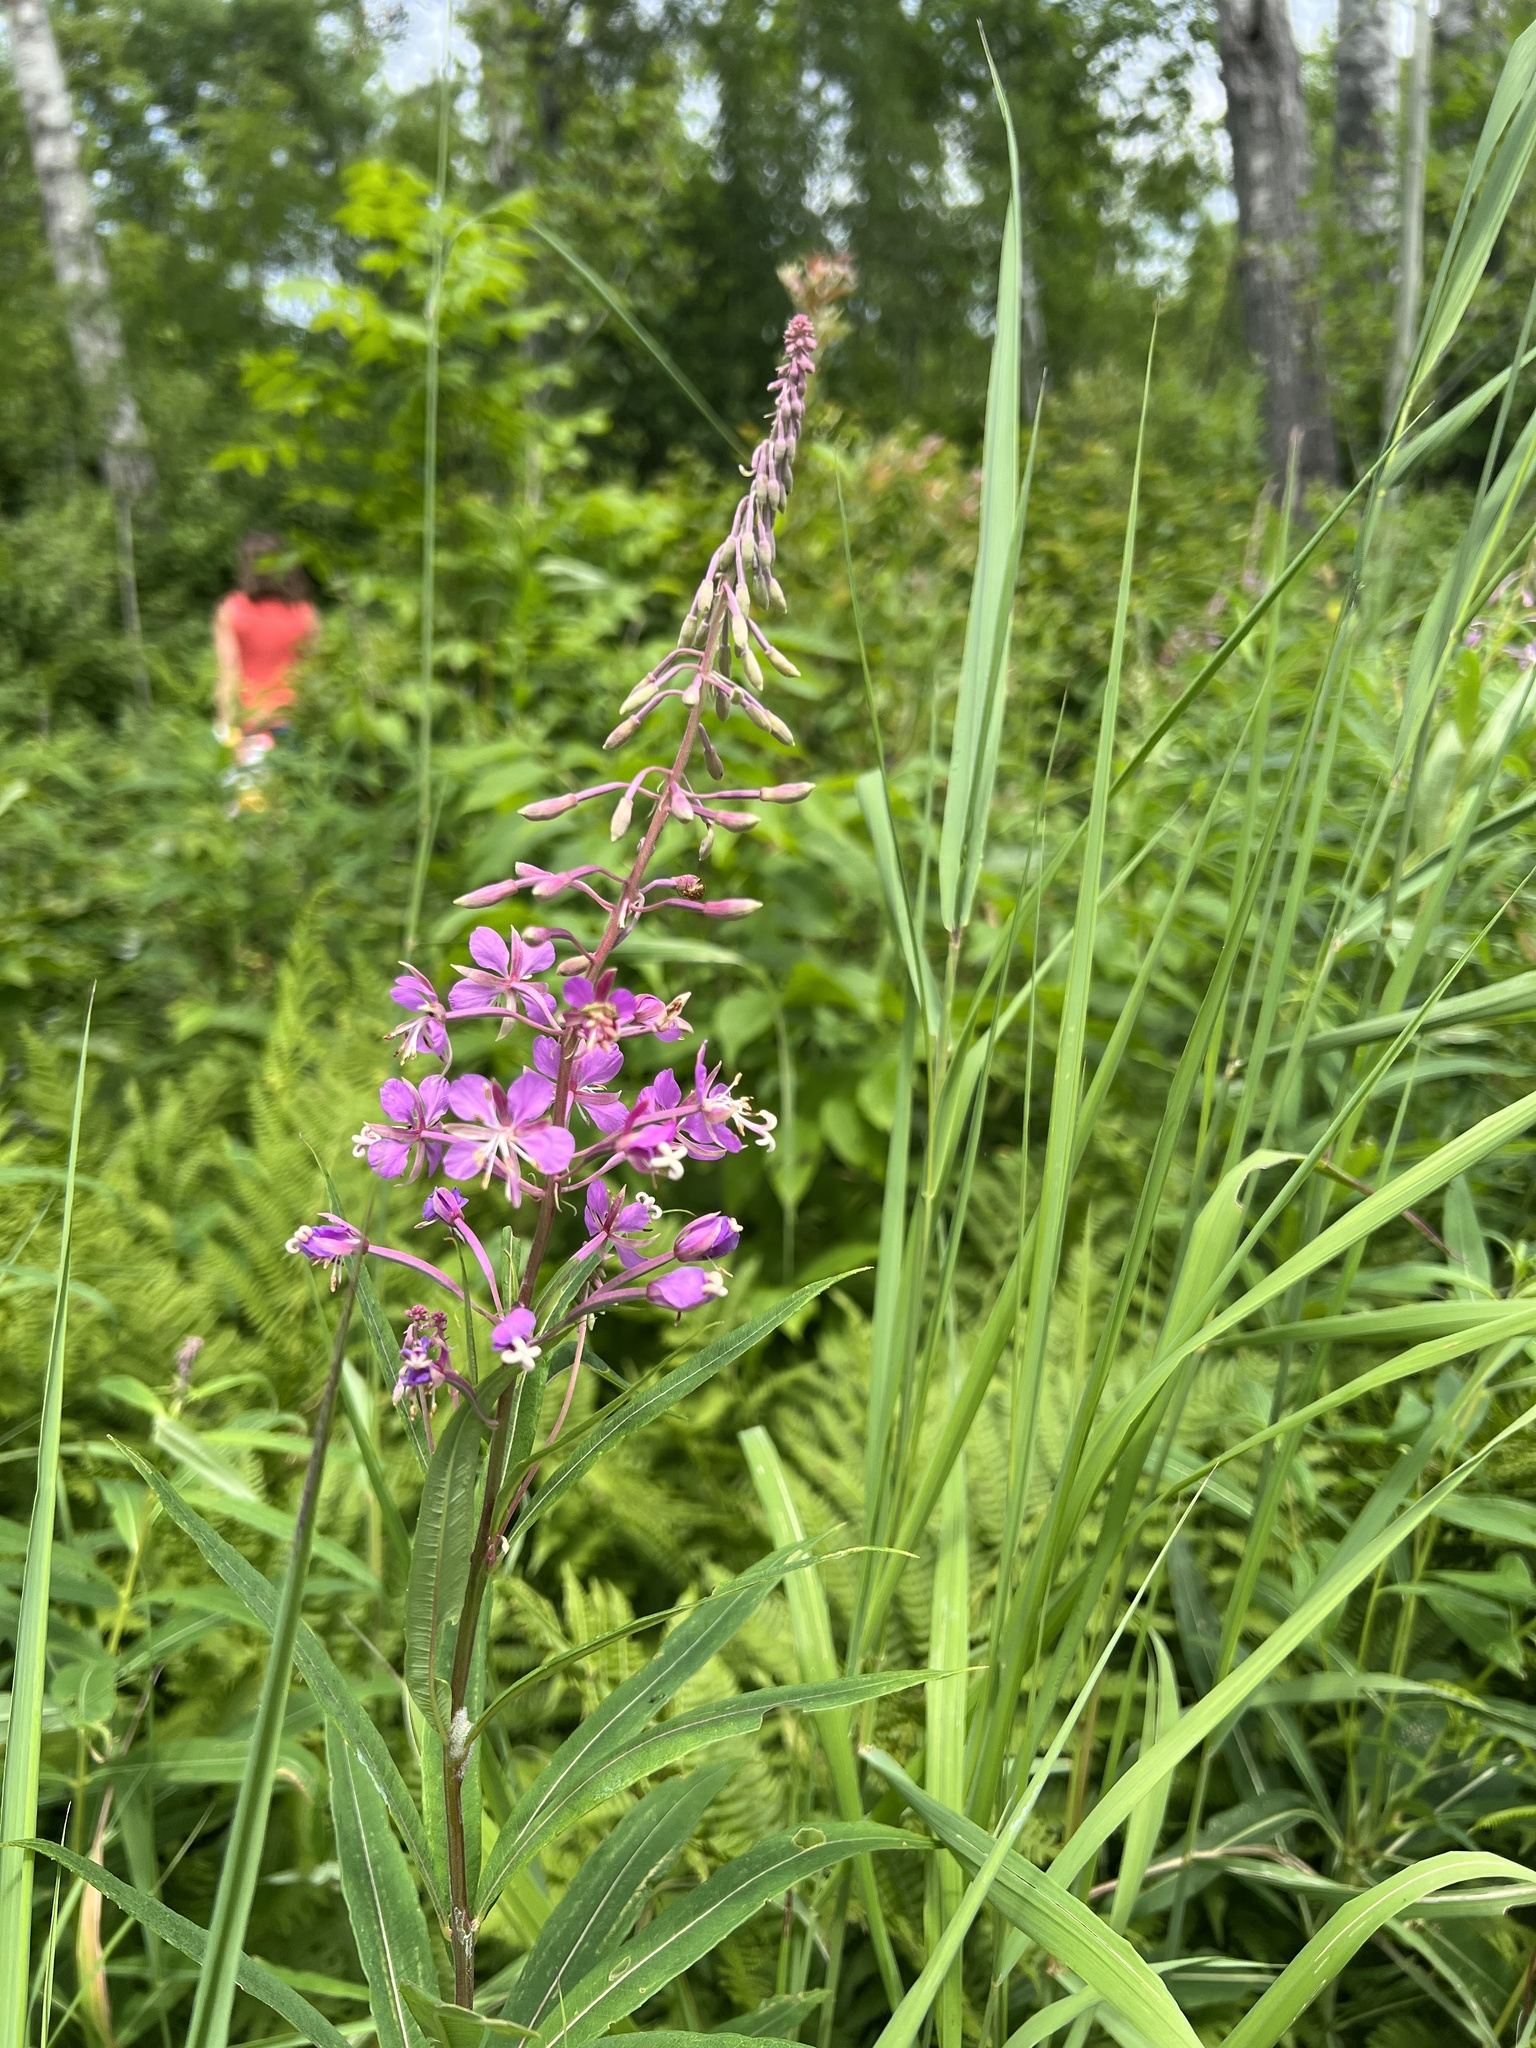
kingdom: Plantae
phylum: Tracheophyta
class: Magnoliopsida
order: Myrtales
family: Onagraceae
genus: Chamaenerion
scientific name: Chamaenerion angustifolium
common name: Fireweed
